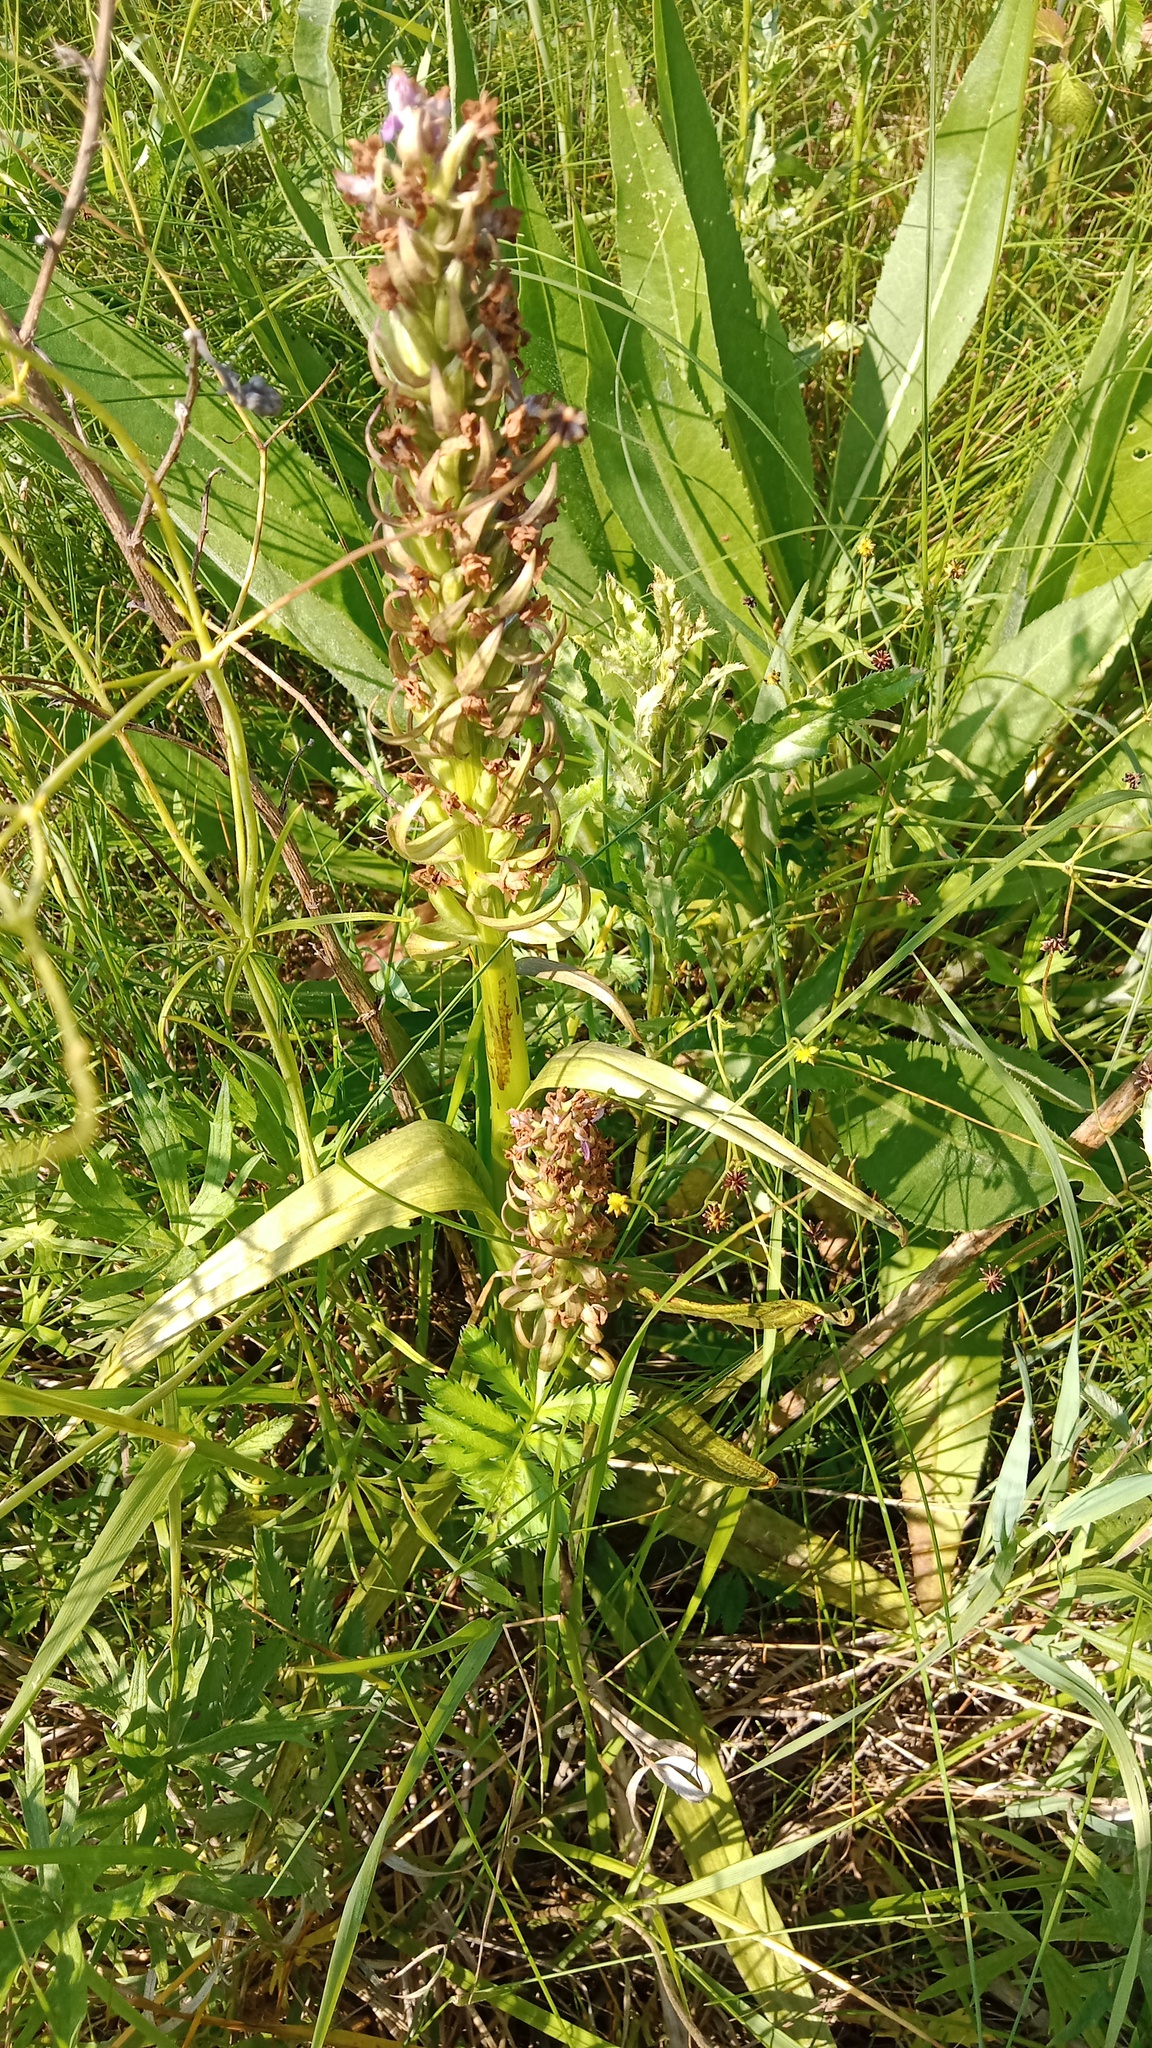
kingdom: Plantae
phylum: Tracheophyta
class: Liliopsida
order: Asparagales
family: Orchidaceae
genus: Dactylorhiza
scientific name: Dactylorhiza incarnata
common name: Early marsh-orchid
